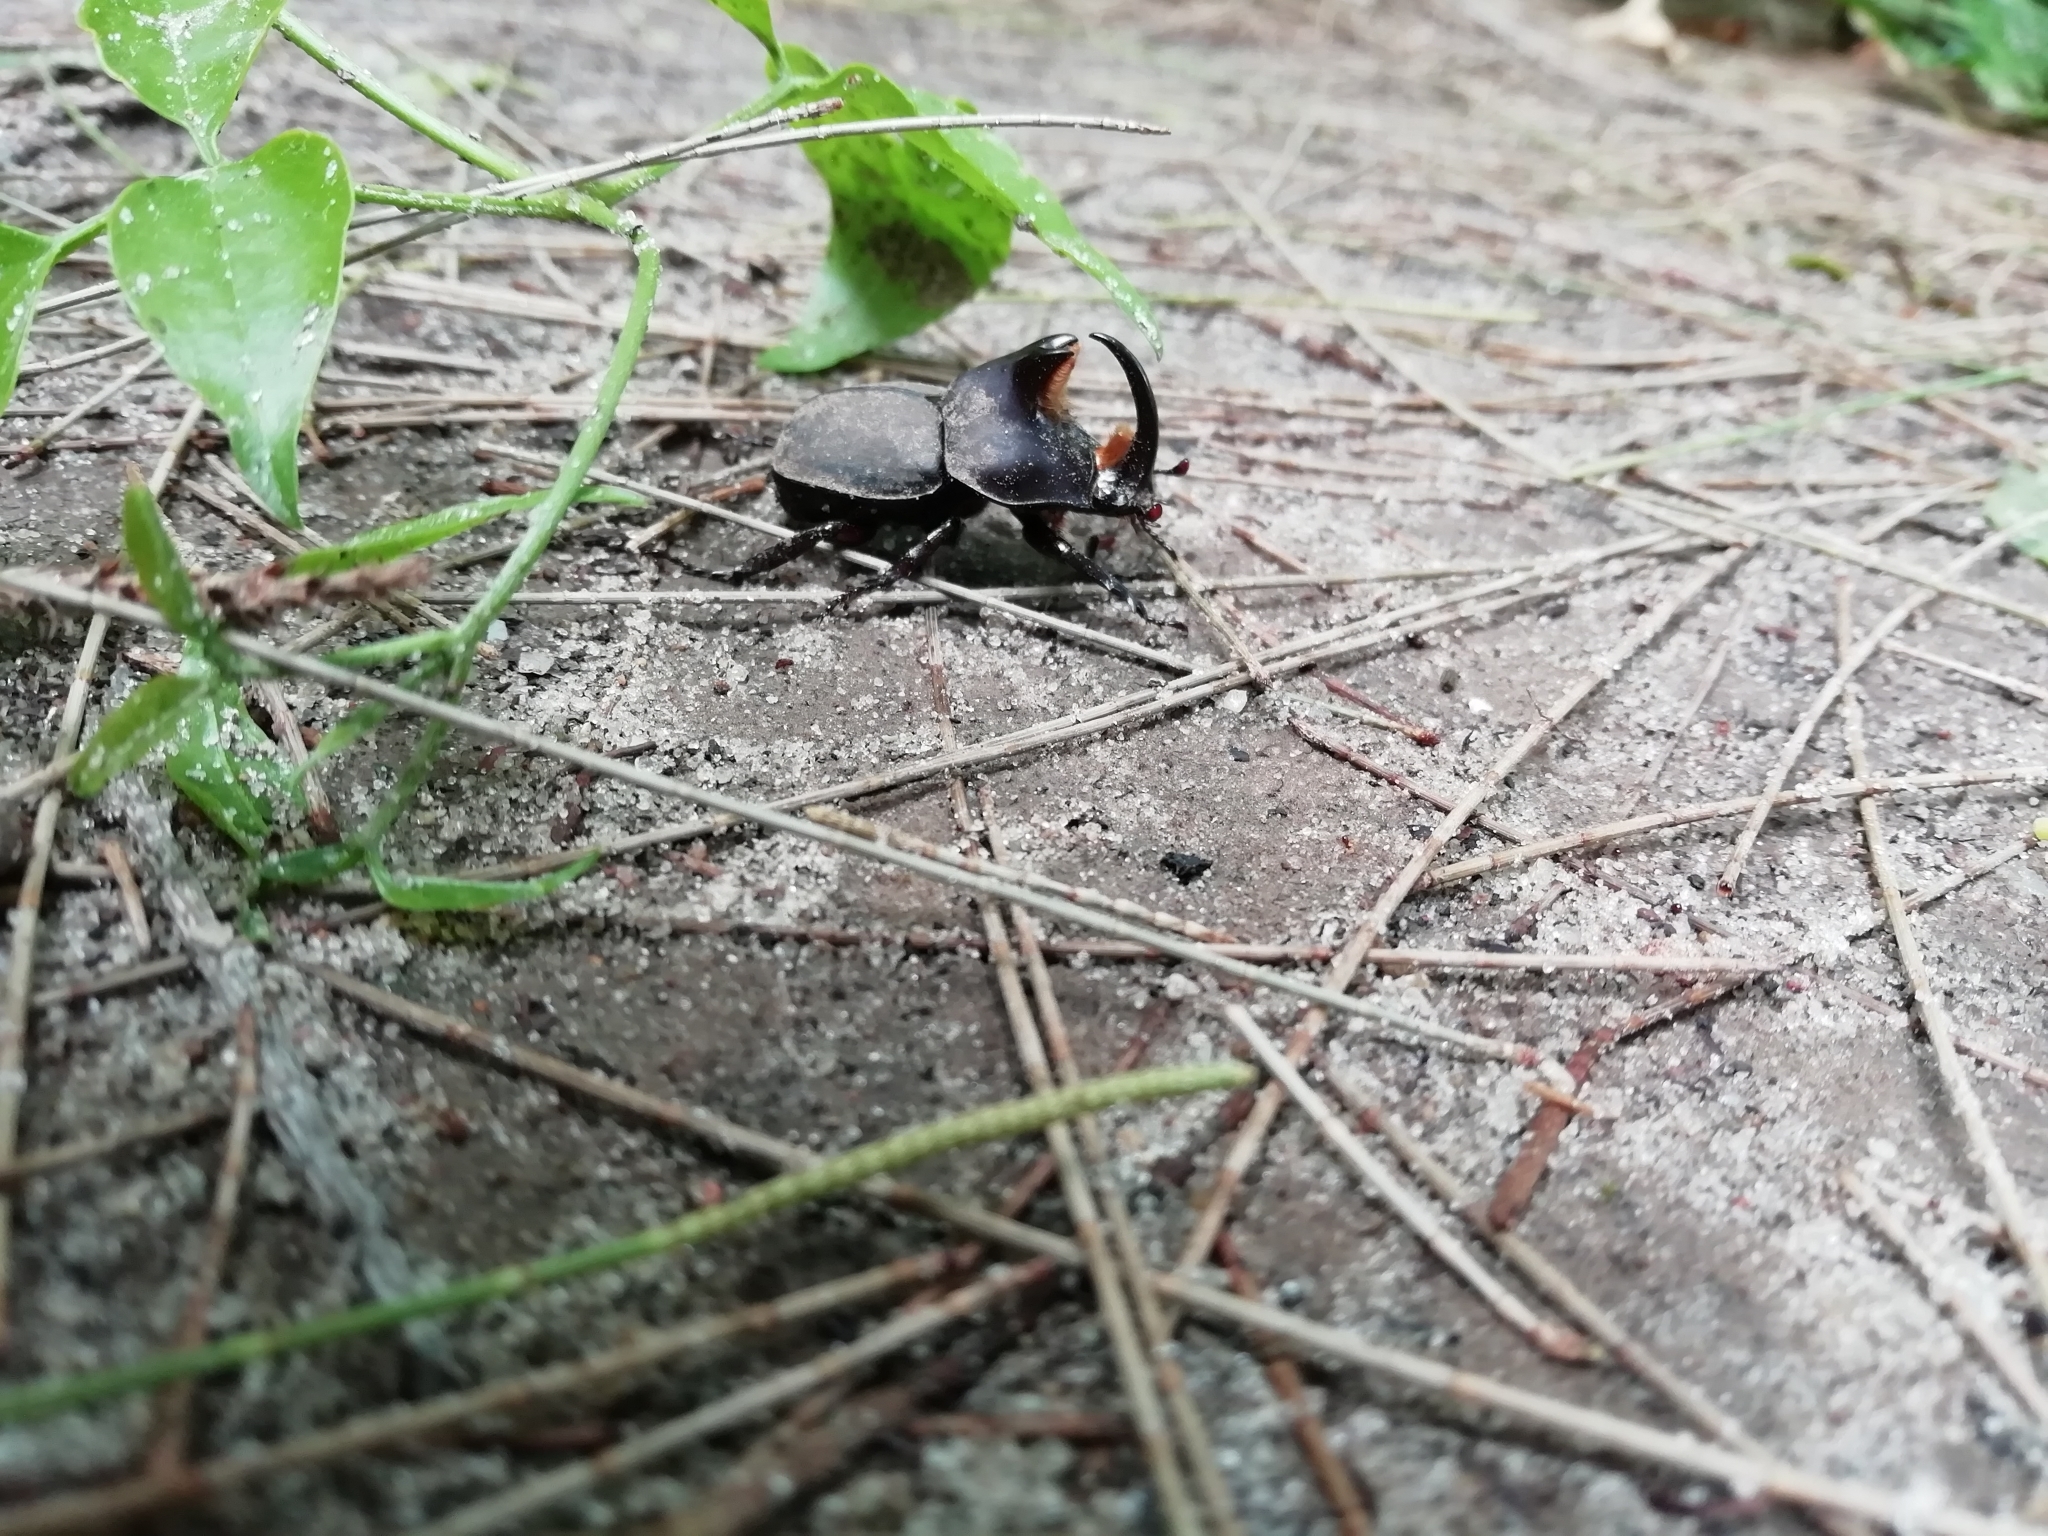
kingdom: Animalia
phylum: Arthropoda
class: Insecta
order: Coleoptera
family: Scarabaeidae
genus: Diloboderus
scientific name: Diloboderus abderus
